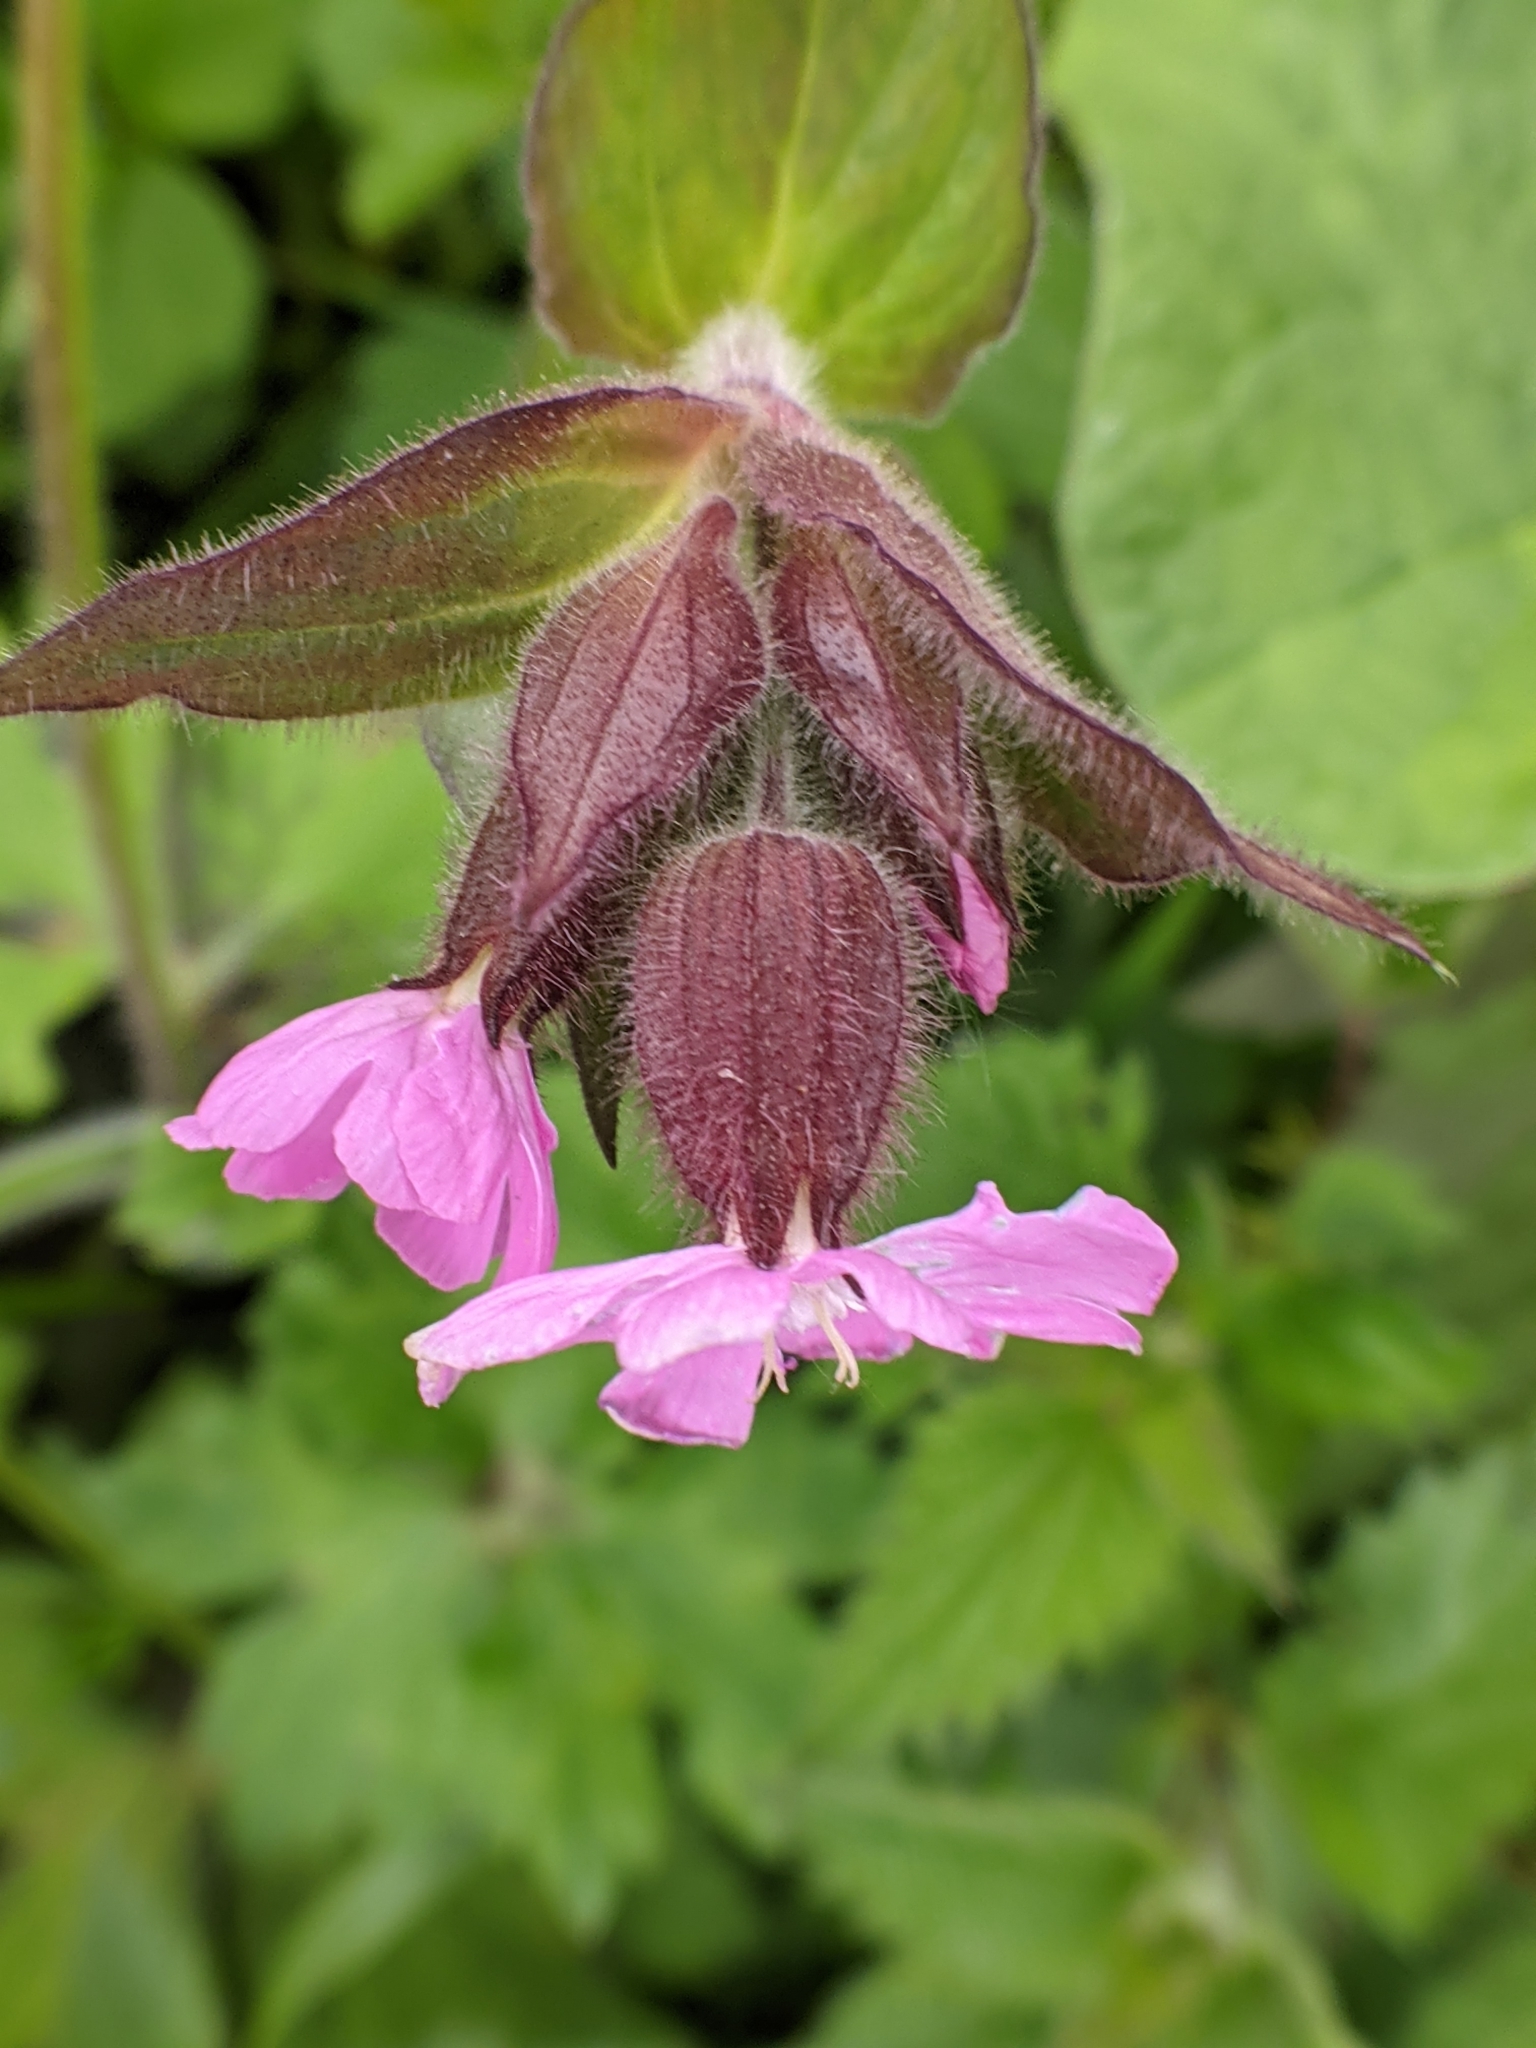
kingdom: Plantae
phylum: Tracheophyta
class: Magnoliopsida
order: Caryophyllales
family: Caryophyllaceae
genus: Silene
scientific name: Silene dioica
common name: Red campion
